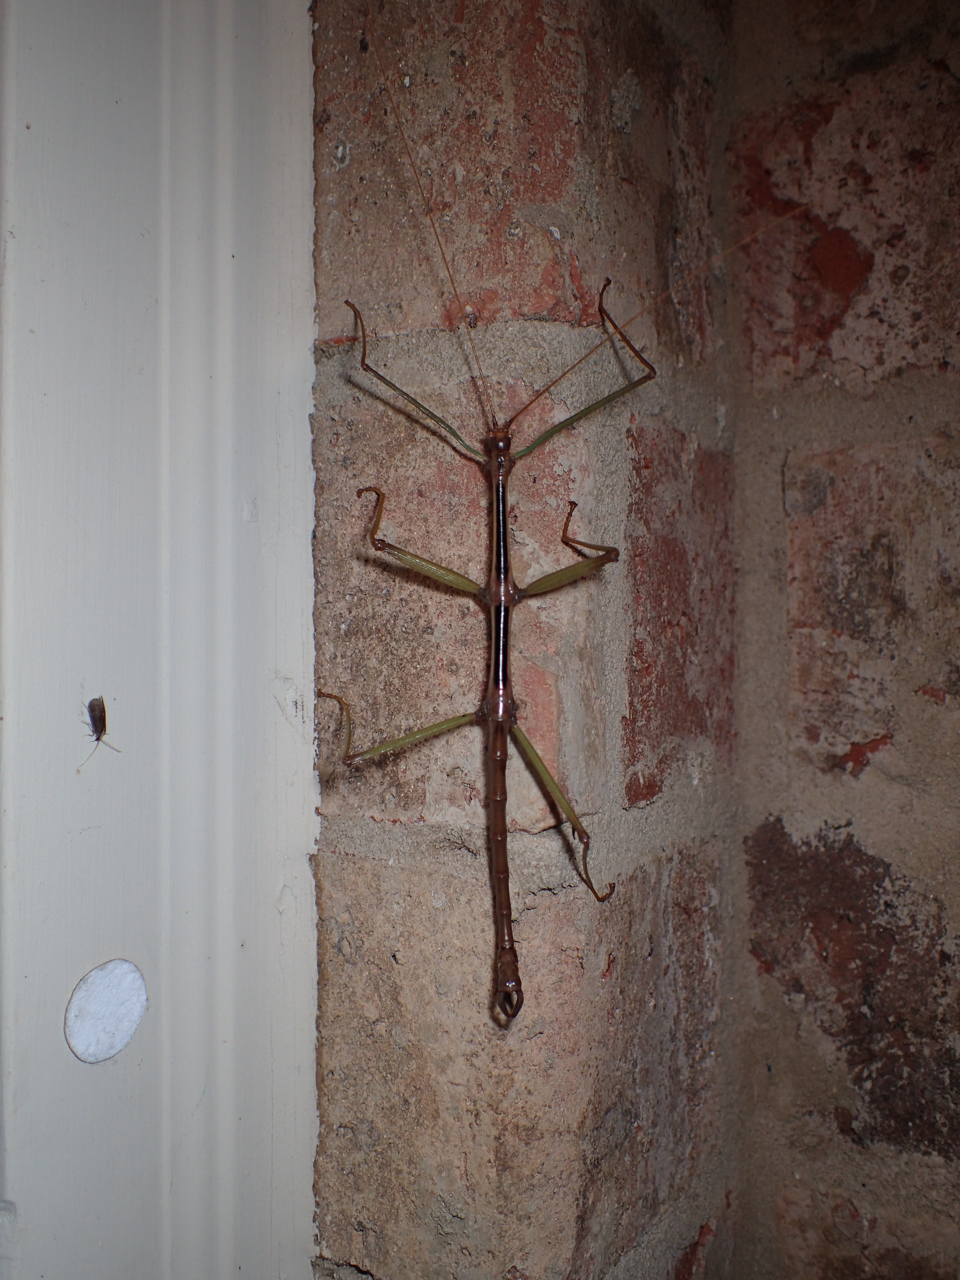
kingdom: Animalia
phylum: Arthropoda
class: Insecta
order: Phasmida
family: Diapheromeridae
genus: Diapheromera
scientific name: Diapheromera carolina
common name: Carolina walkingstick
